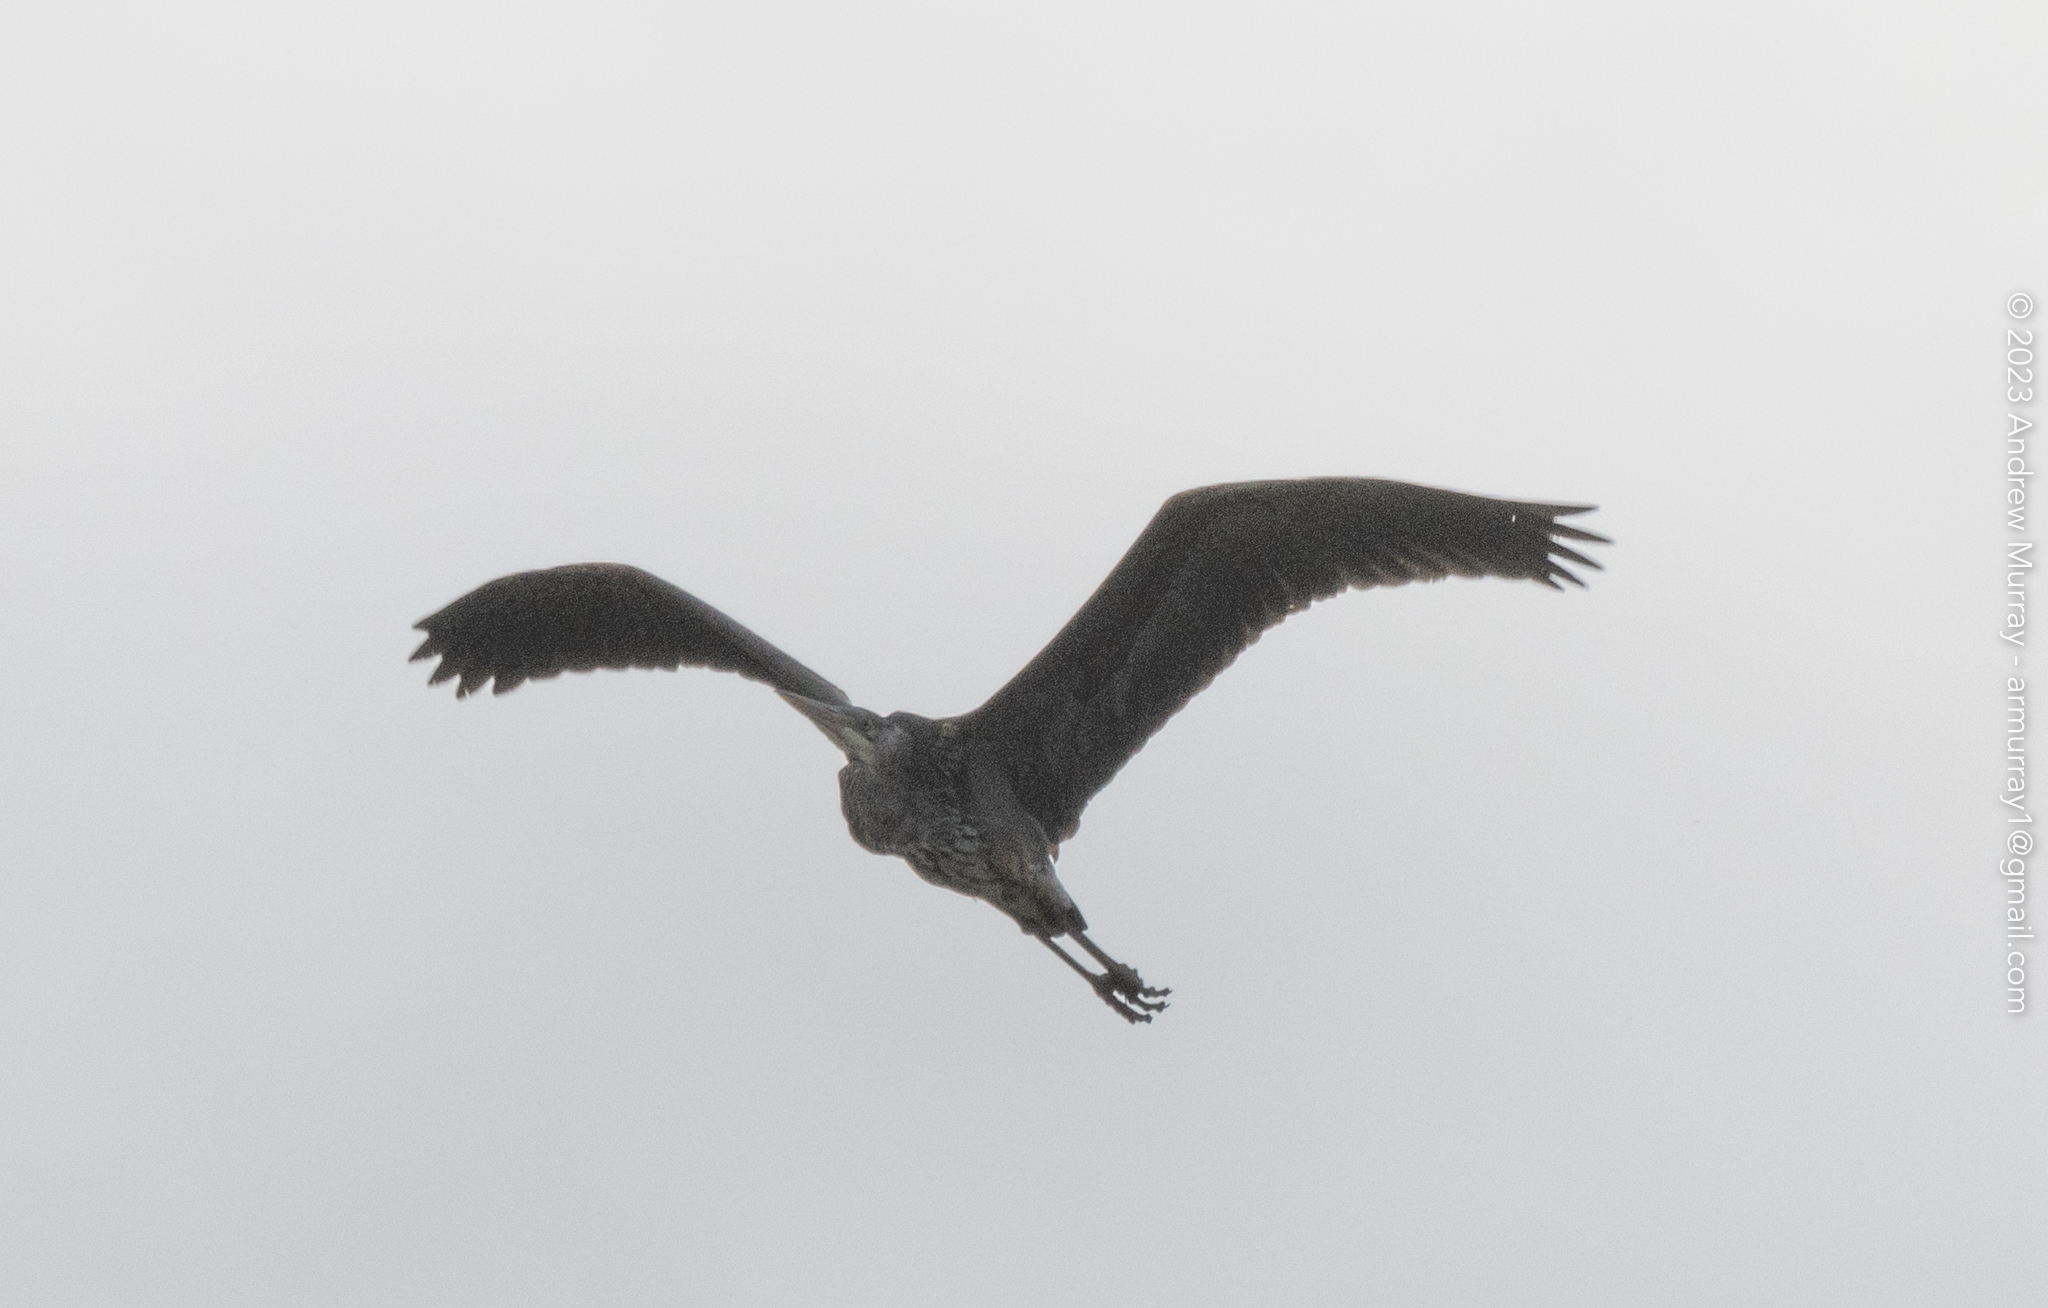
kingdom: Animalia
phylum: Chordata
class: Aves
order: Pelecaniformes
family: Ardeidae
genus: Ardea
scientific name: Ardea herodias
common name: Great blue heron
